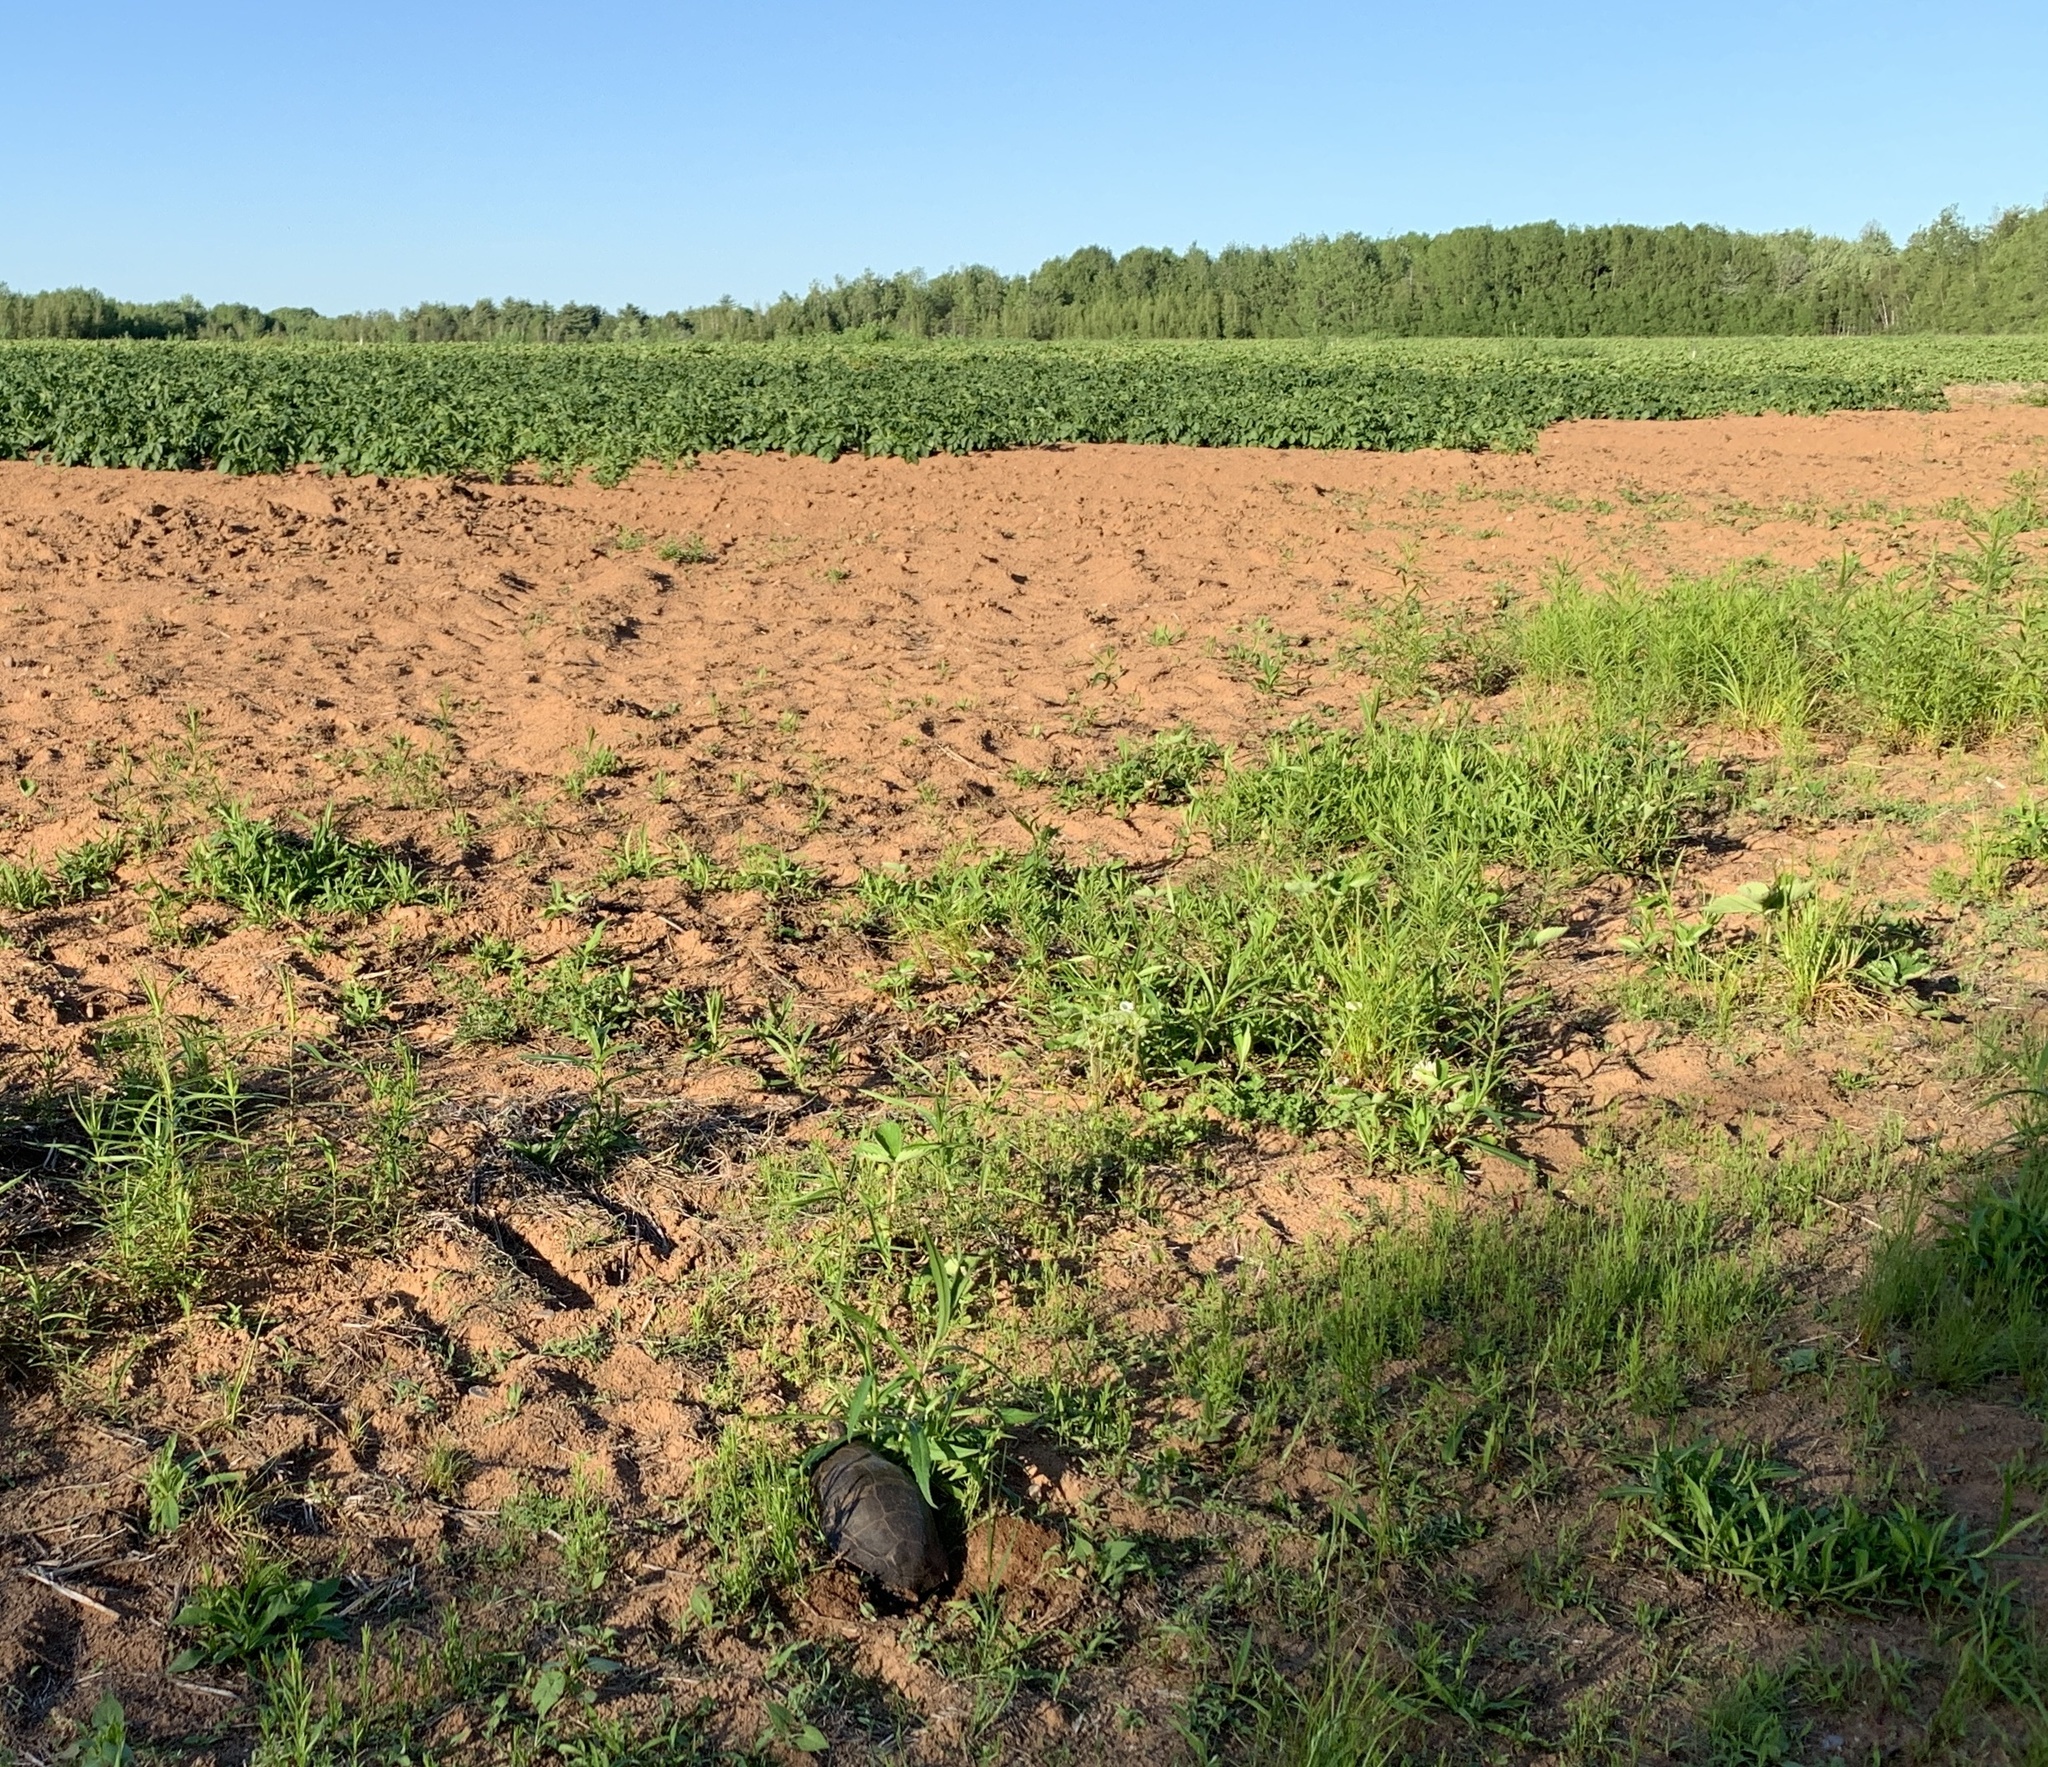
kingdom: Animalia
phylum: Chordata
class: Testudines
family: Emydidae
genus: Chrysemys
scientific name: Chrysemys picta
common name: Painted turtle
